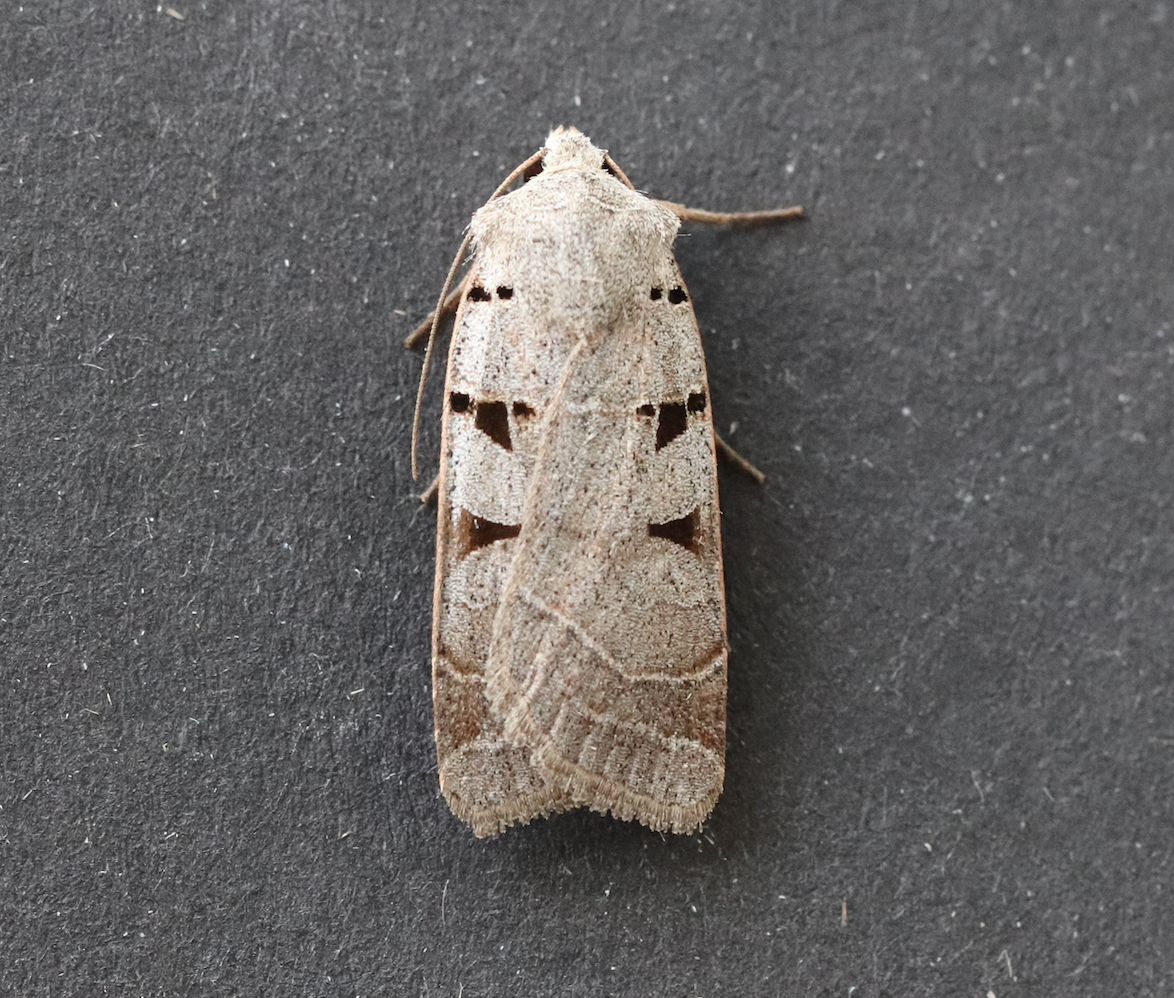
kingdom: Animalia
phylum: Arthropoda
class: Insecta
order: Lepidoptera
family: Noctuidae
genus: Eugnorisma
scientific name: Eugnorisma glareosa
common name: Autumnal rustic
